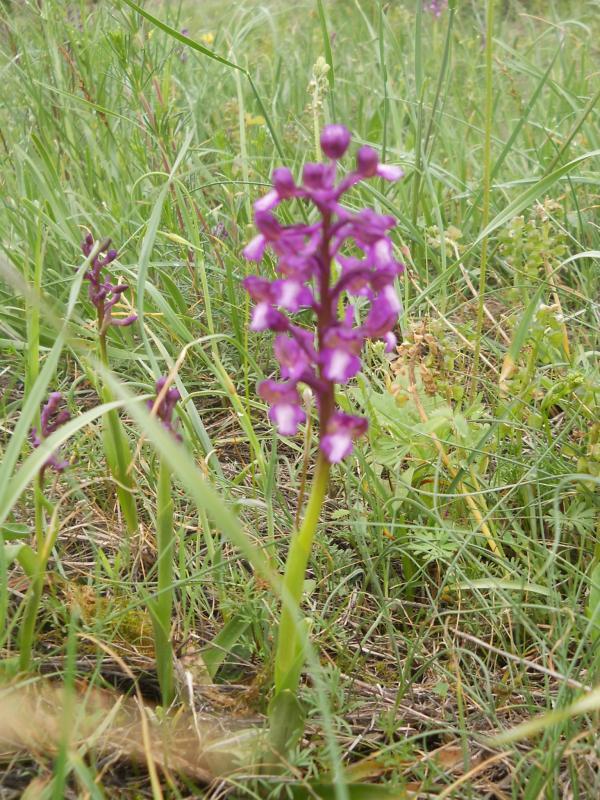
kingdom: Plantae
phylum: Tracheophyta
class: Liliopsida
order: Asparagales
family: Orchidaceae
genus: Anacamptis
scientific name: Anacamptis morio
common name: Green-winged orchid
